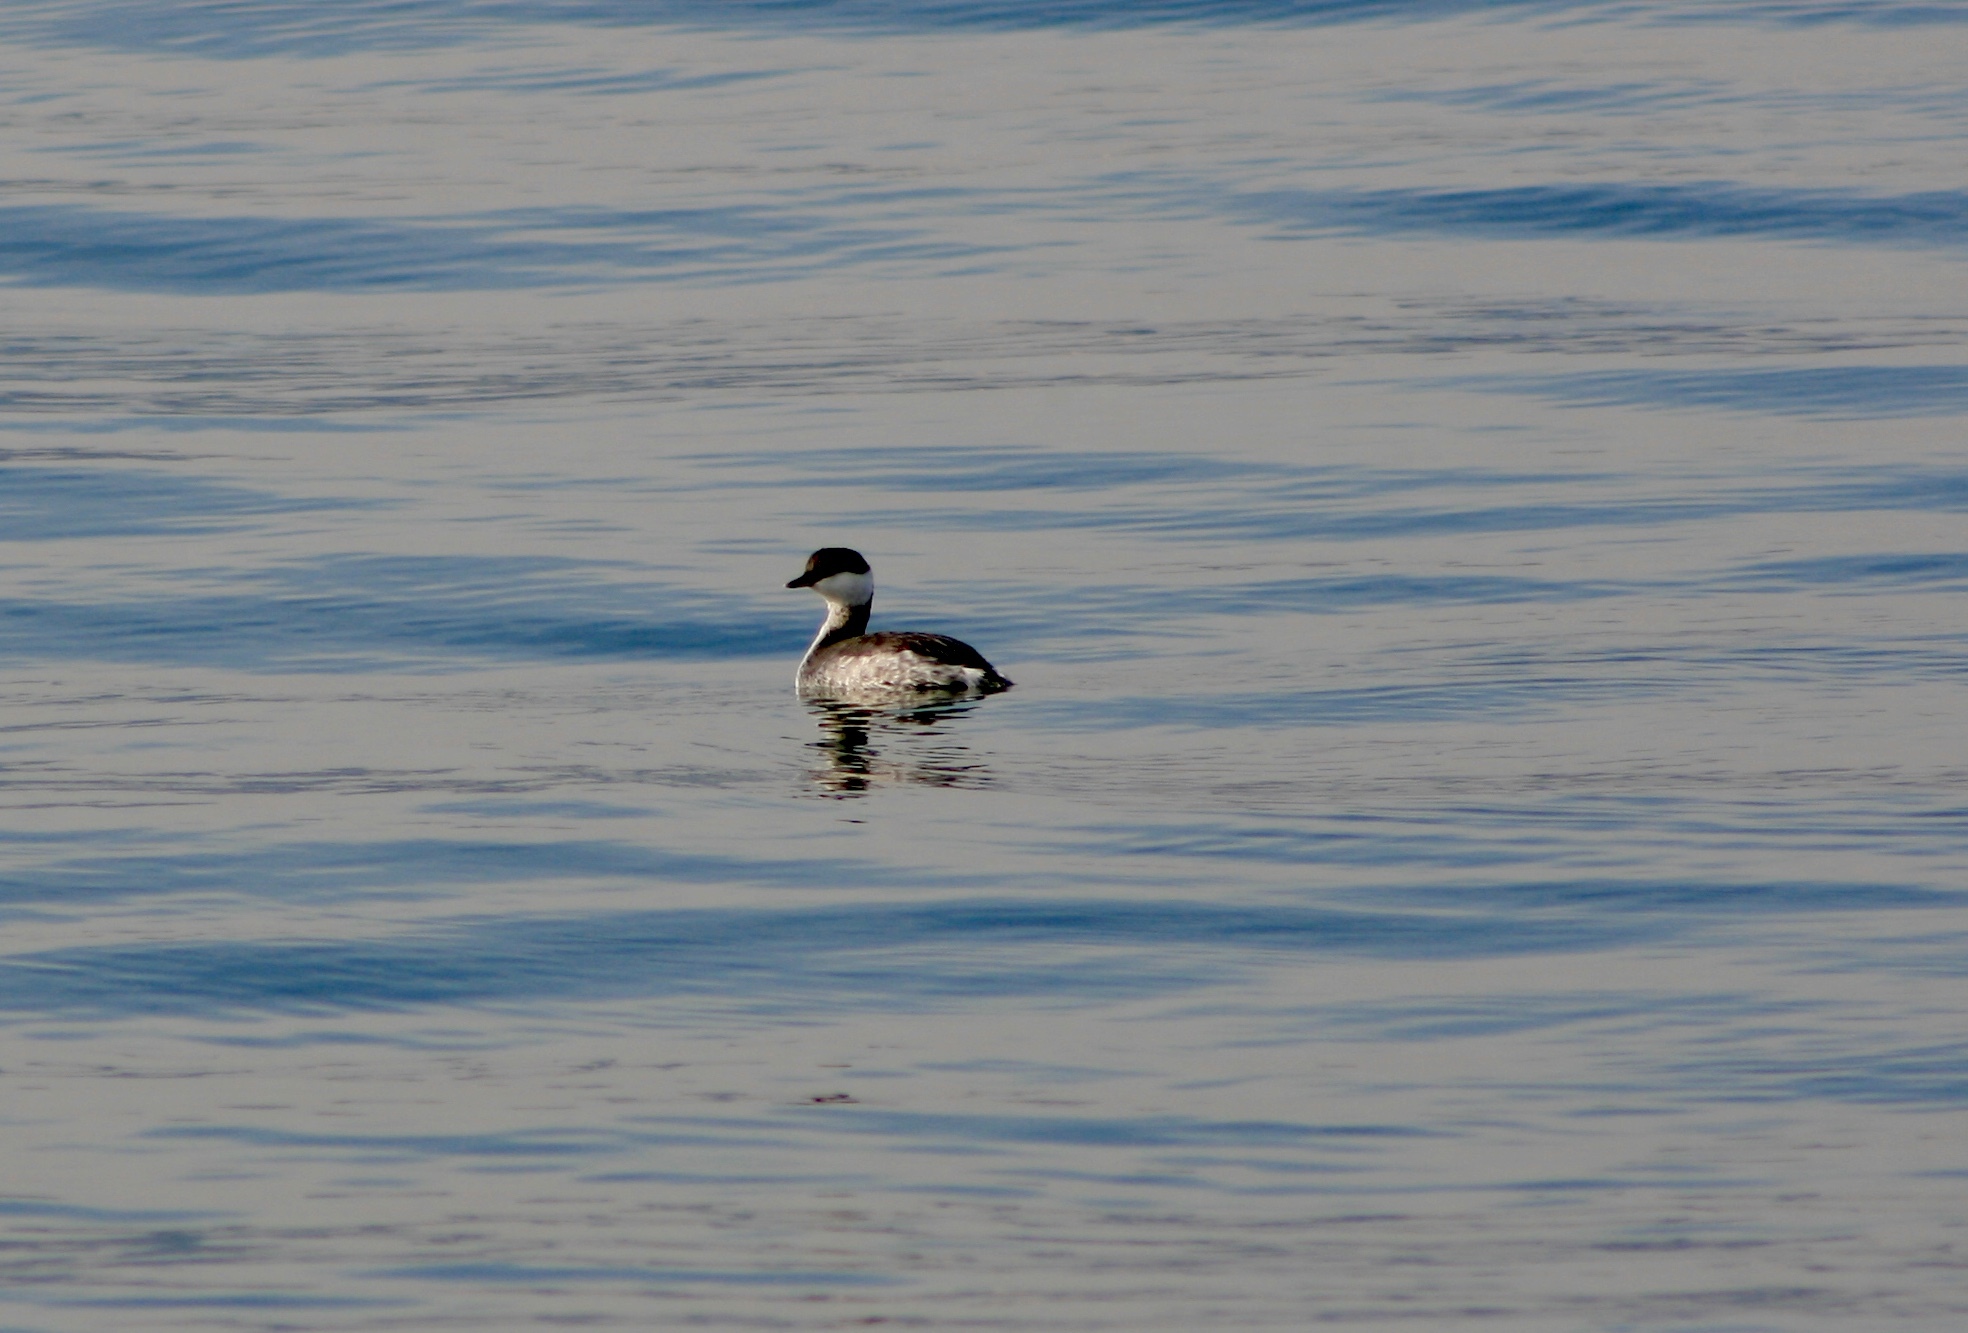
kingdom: Animalia
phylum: Chordata
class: Aves
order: Podicipediformes
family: Podicipedidae
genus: Podiceps
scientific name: Podiceps auritus
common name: Horned grebe
